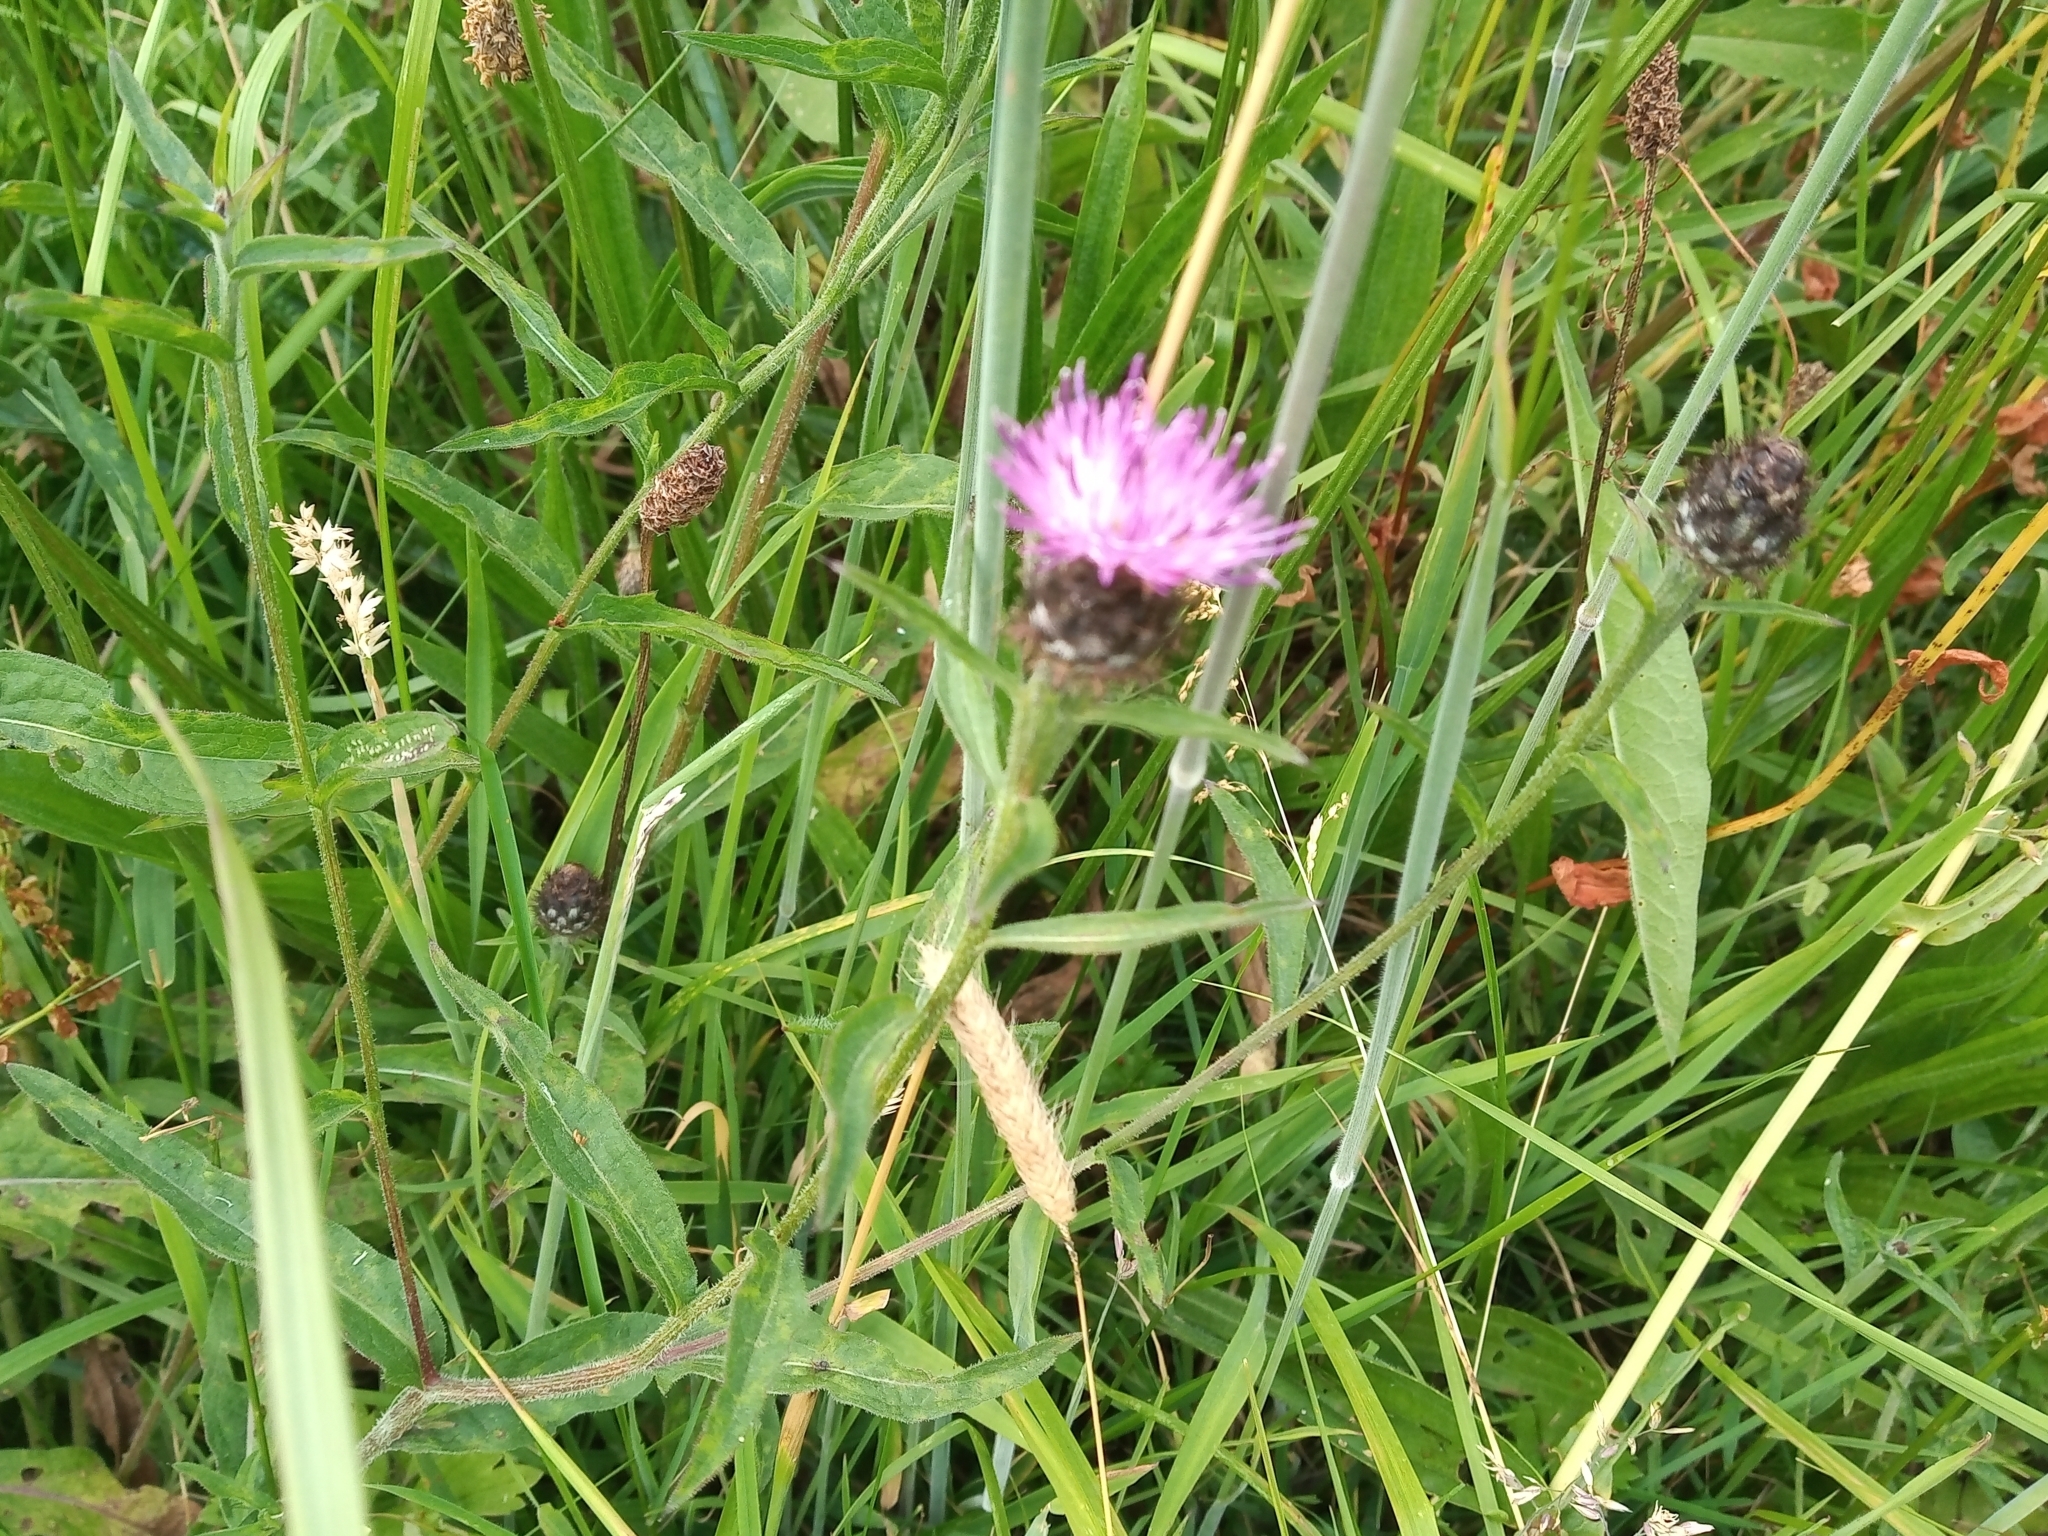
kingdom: Plantae
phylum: Tracheophyta
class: Magnoliopsida
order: Asterales
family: Asteraceae
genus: Centaurea
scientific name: Centaurea nigra
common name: Lesser knapweed
